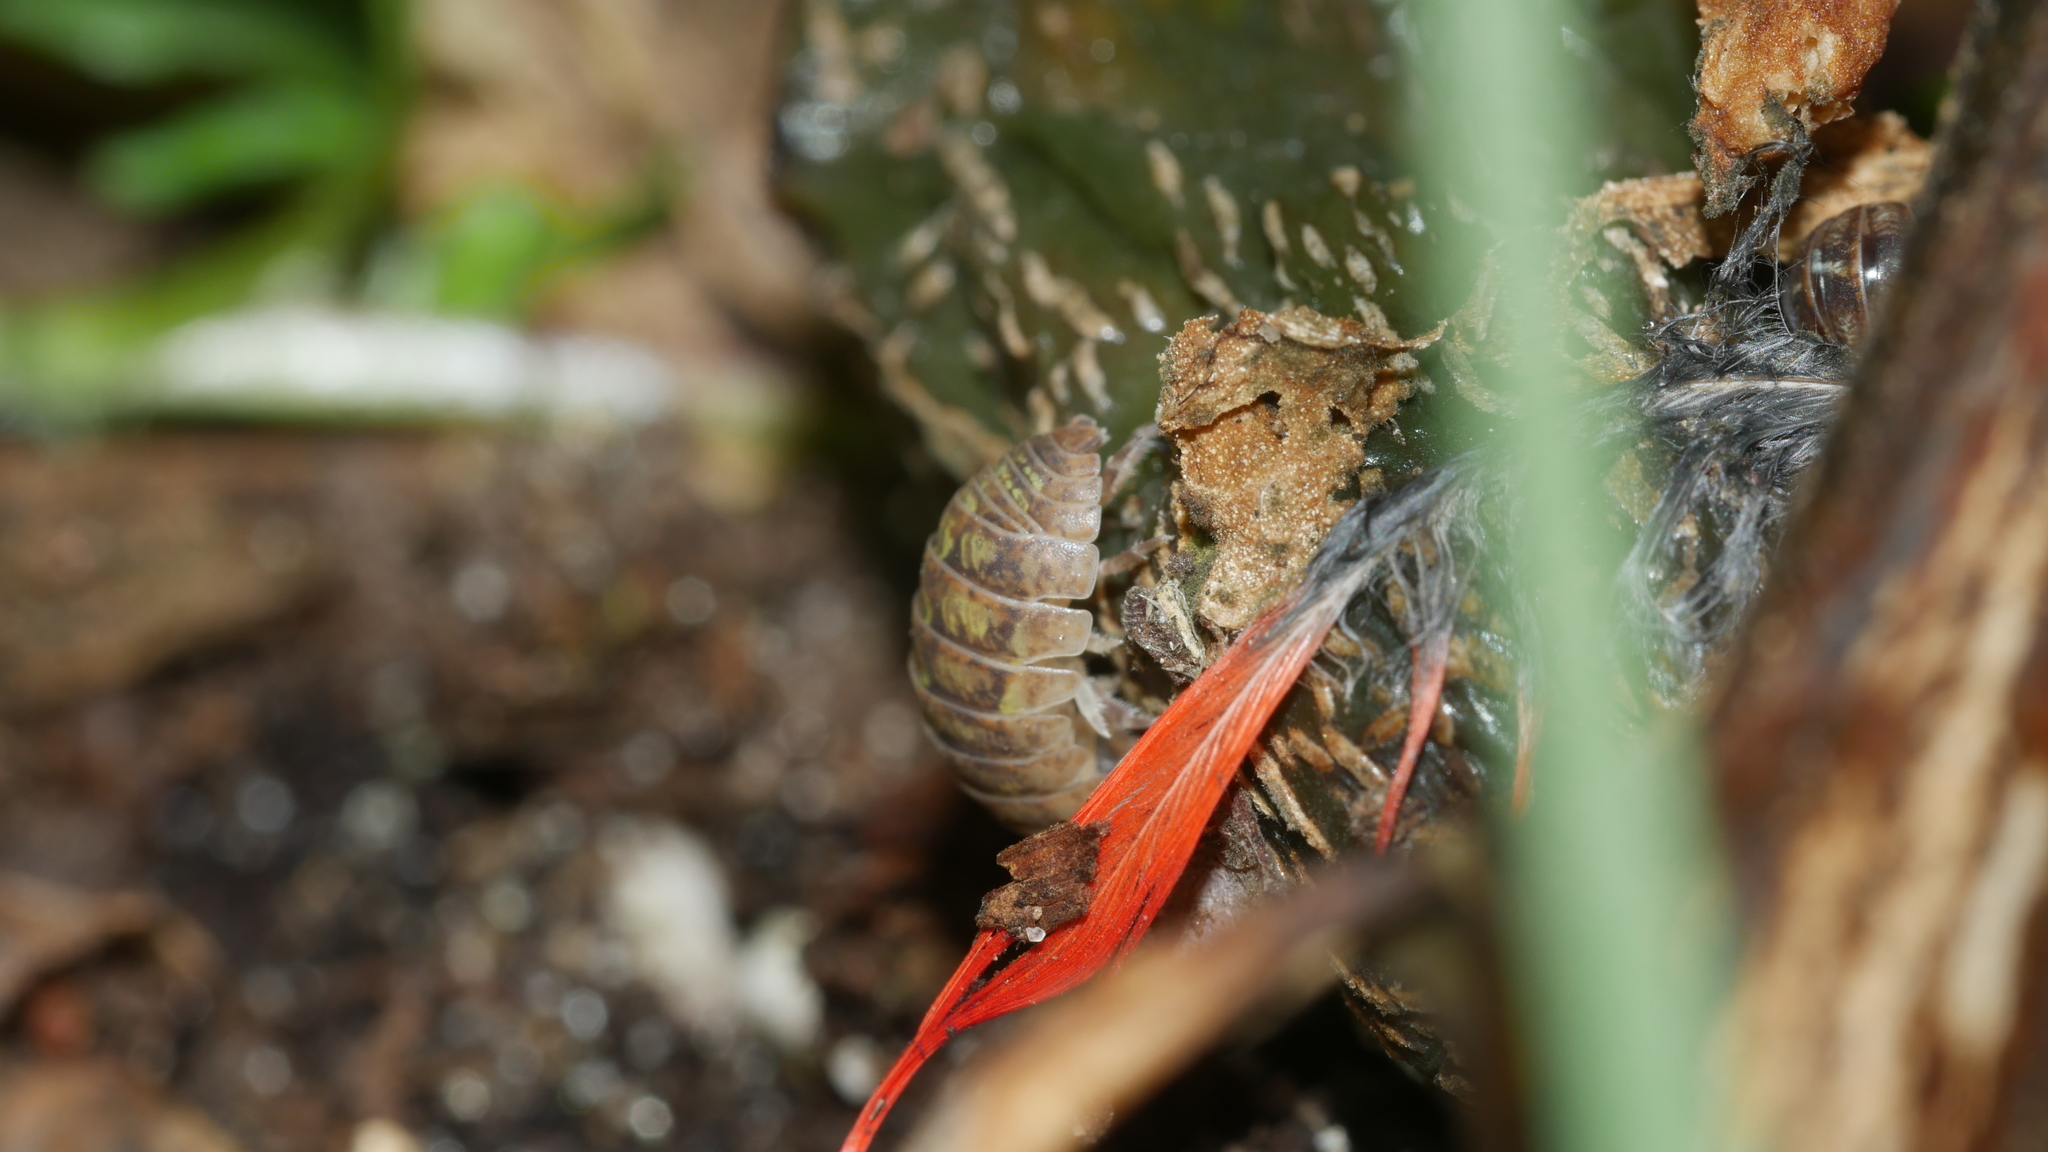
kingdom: Animalia
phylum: Arthropoda
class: Malacostraca
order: Isopoda
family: Armadillidiidae
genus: Armadillidium
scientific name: Armadillidium vulgare
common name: Common pill woodlouse
